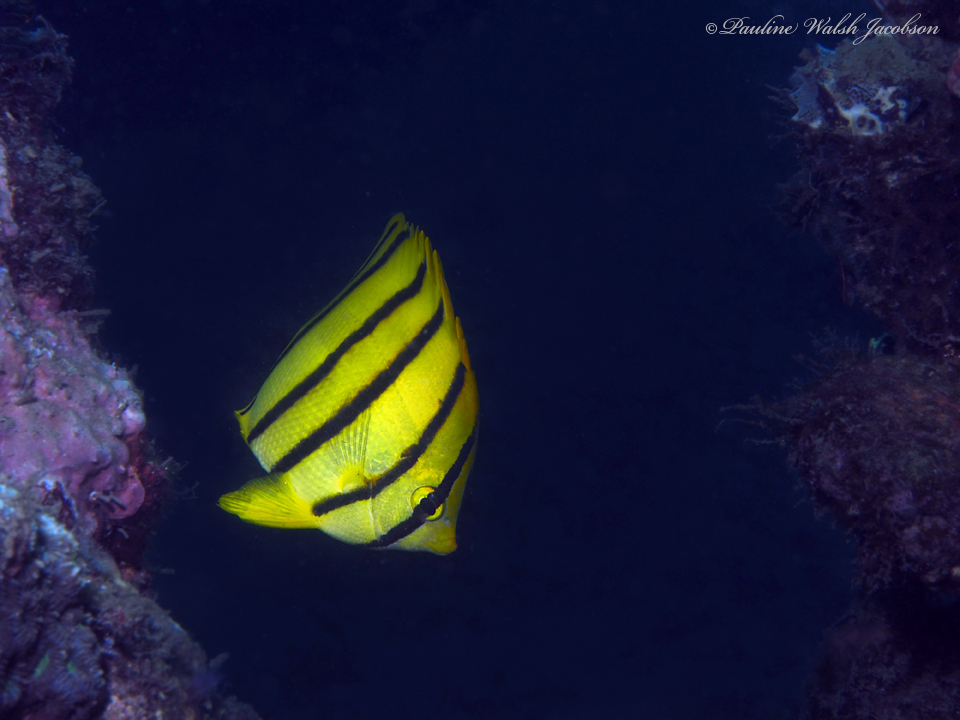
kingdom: Animalia
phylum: Chordata
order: Perciformes
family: Chaetodontidae
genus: Chaetodon
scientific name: Chaetodon octofasciatus
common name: Eightband butterflyfish
